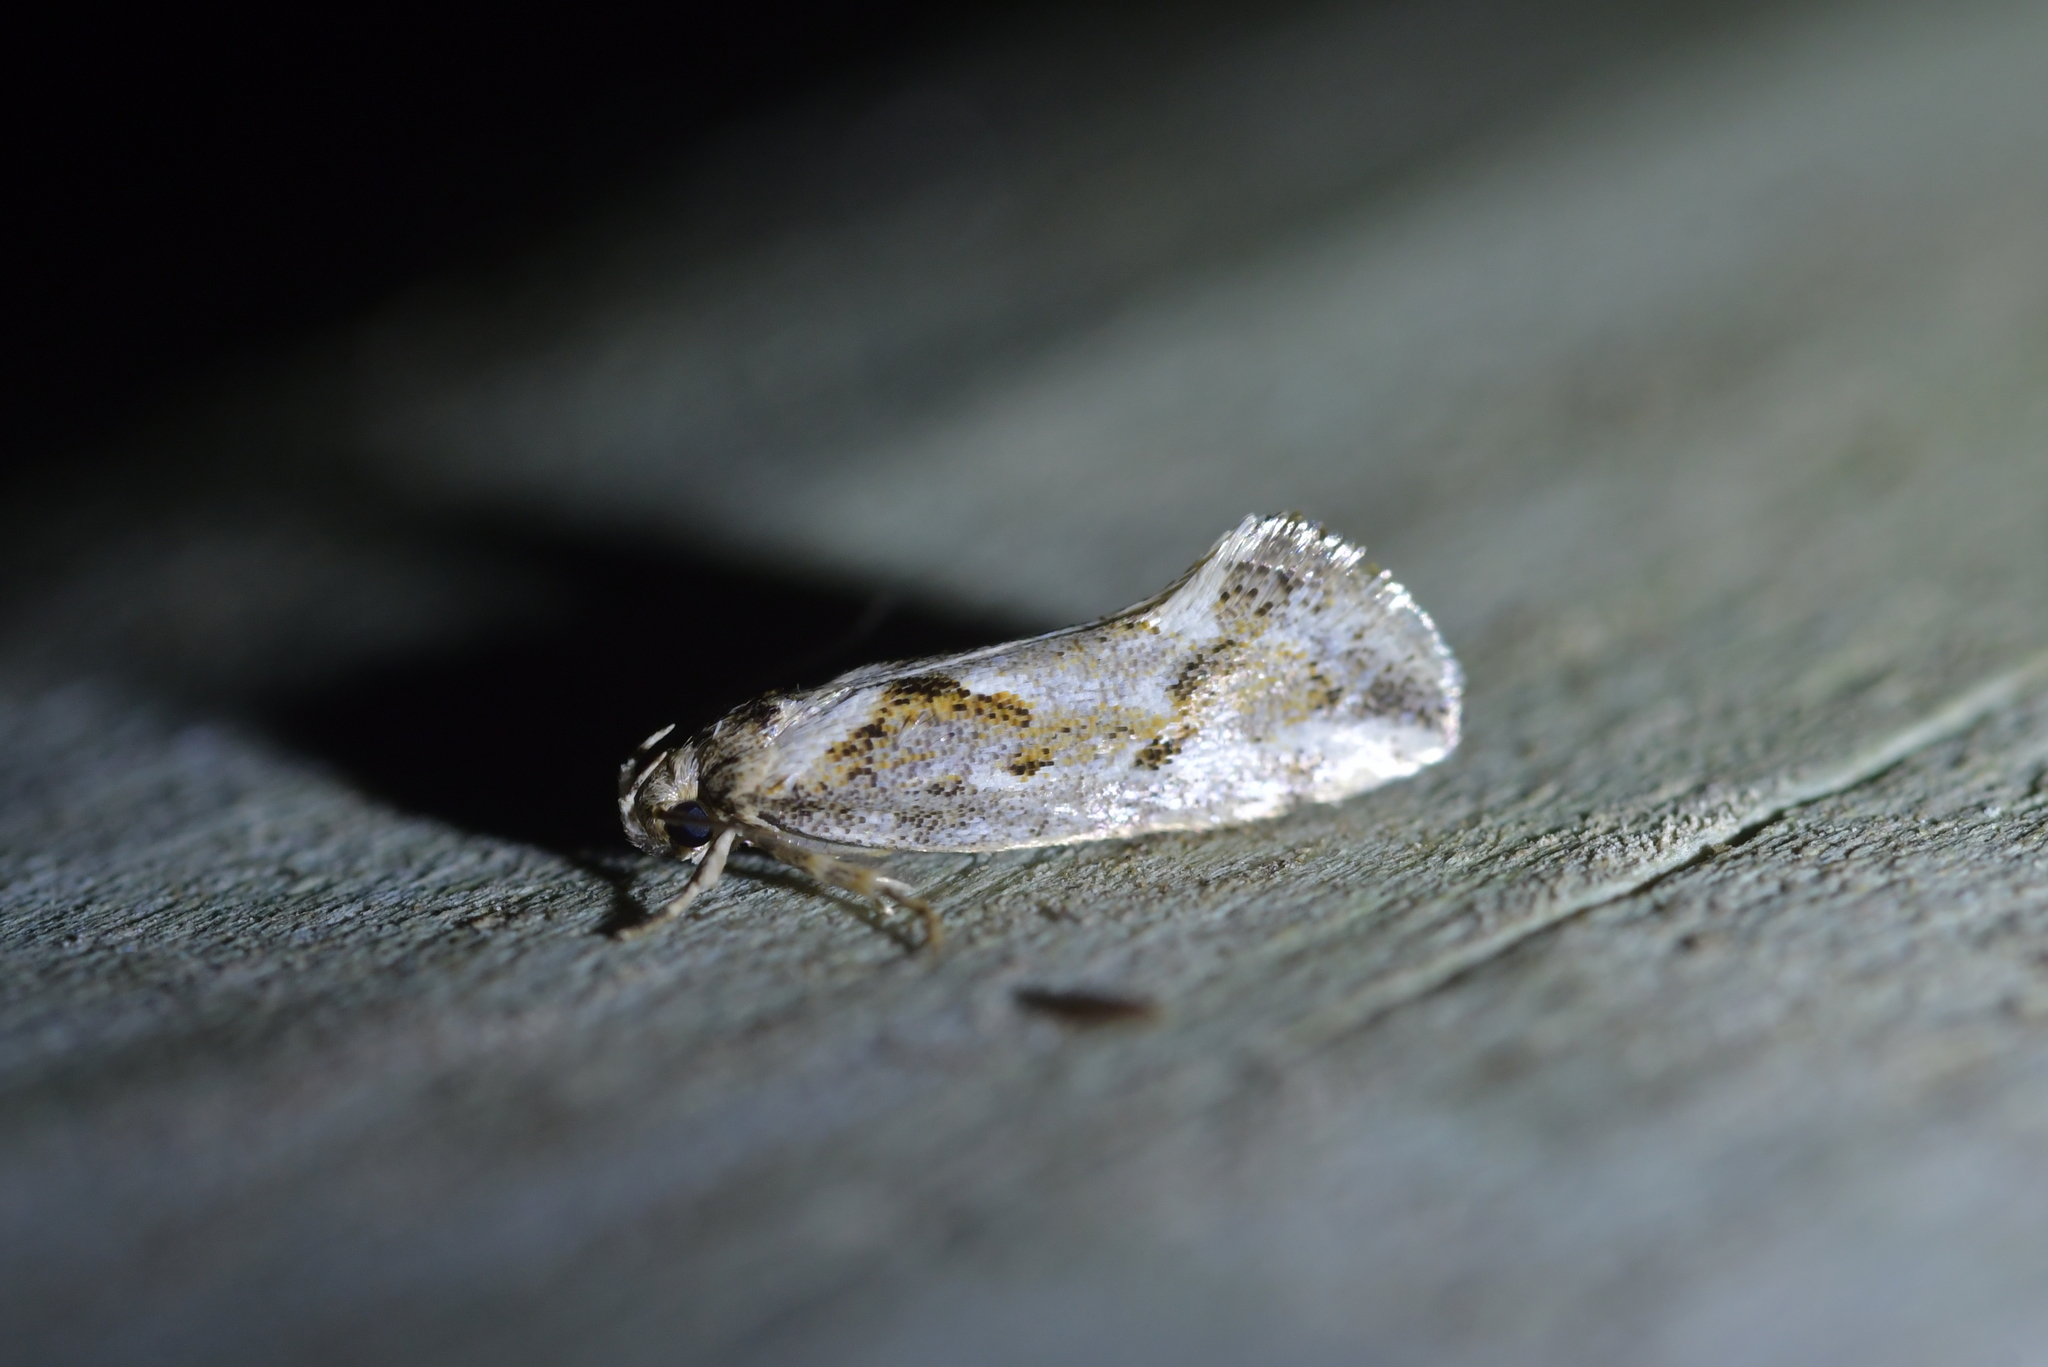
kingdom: Animalia
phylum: Arthropoda
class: Insecta
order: Lepidoptera
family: Oecophoridae
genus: Tingena
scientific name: Tingena hemimochla
